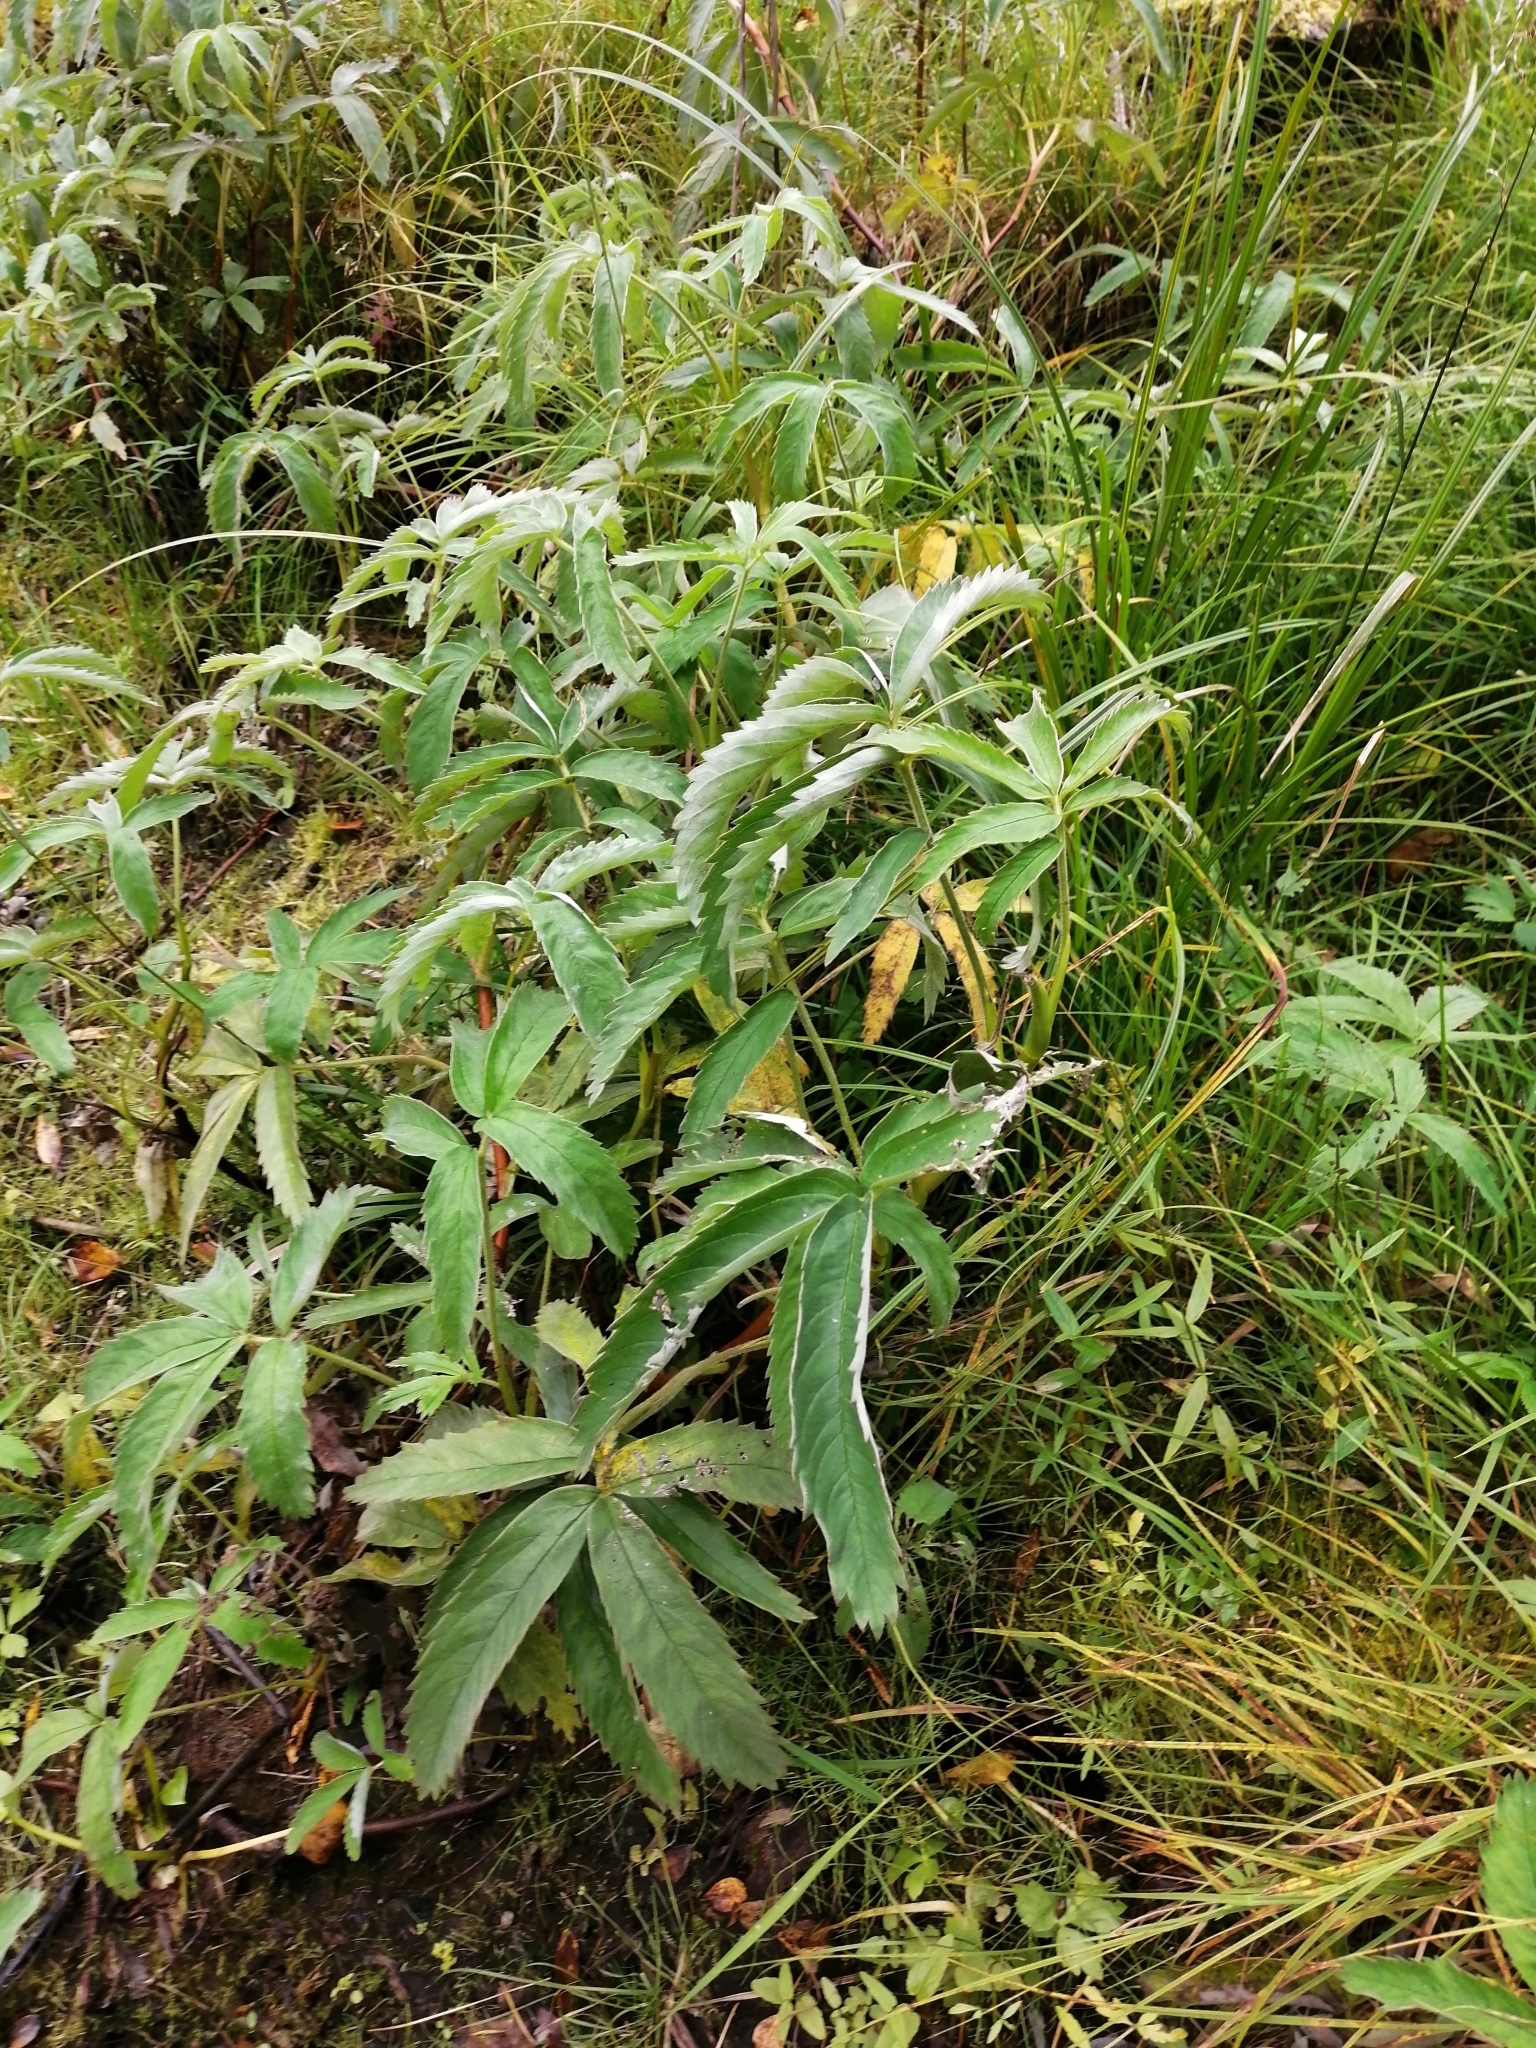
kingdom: Plantae
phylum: Tracheophyta
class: Magnoliopsida
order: Rosales
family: Rosaceae
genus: Comarum
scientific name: Comarum palustre
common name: Marsh cinquefoil
